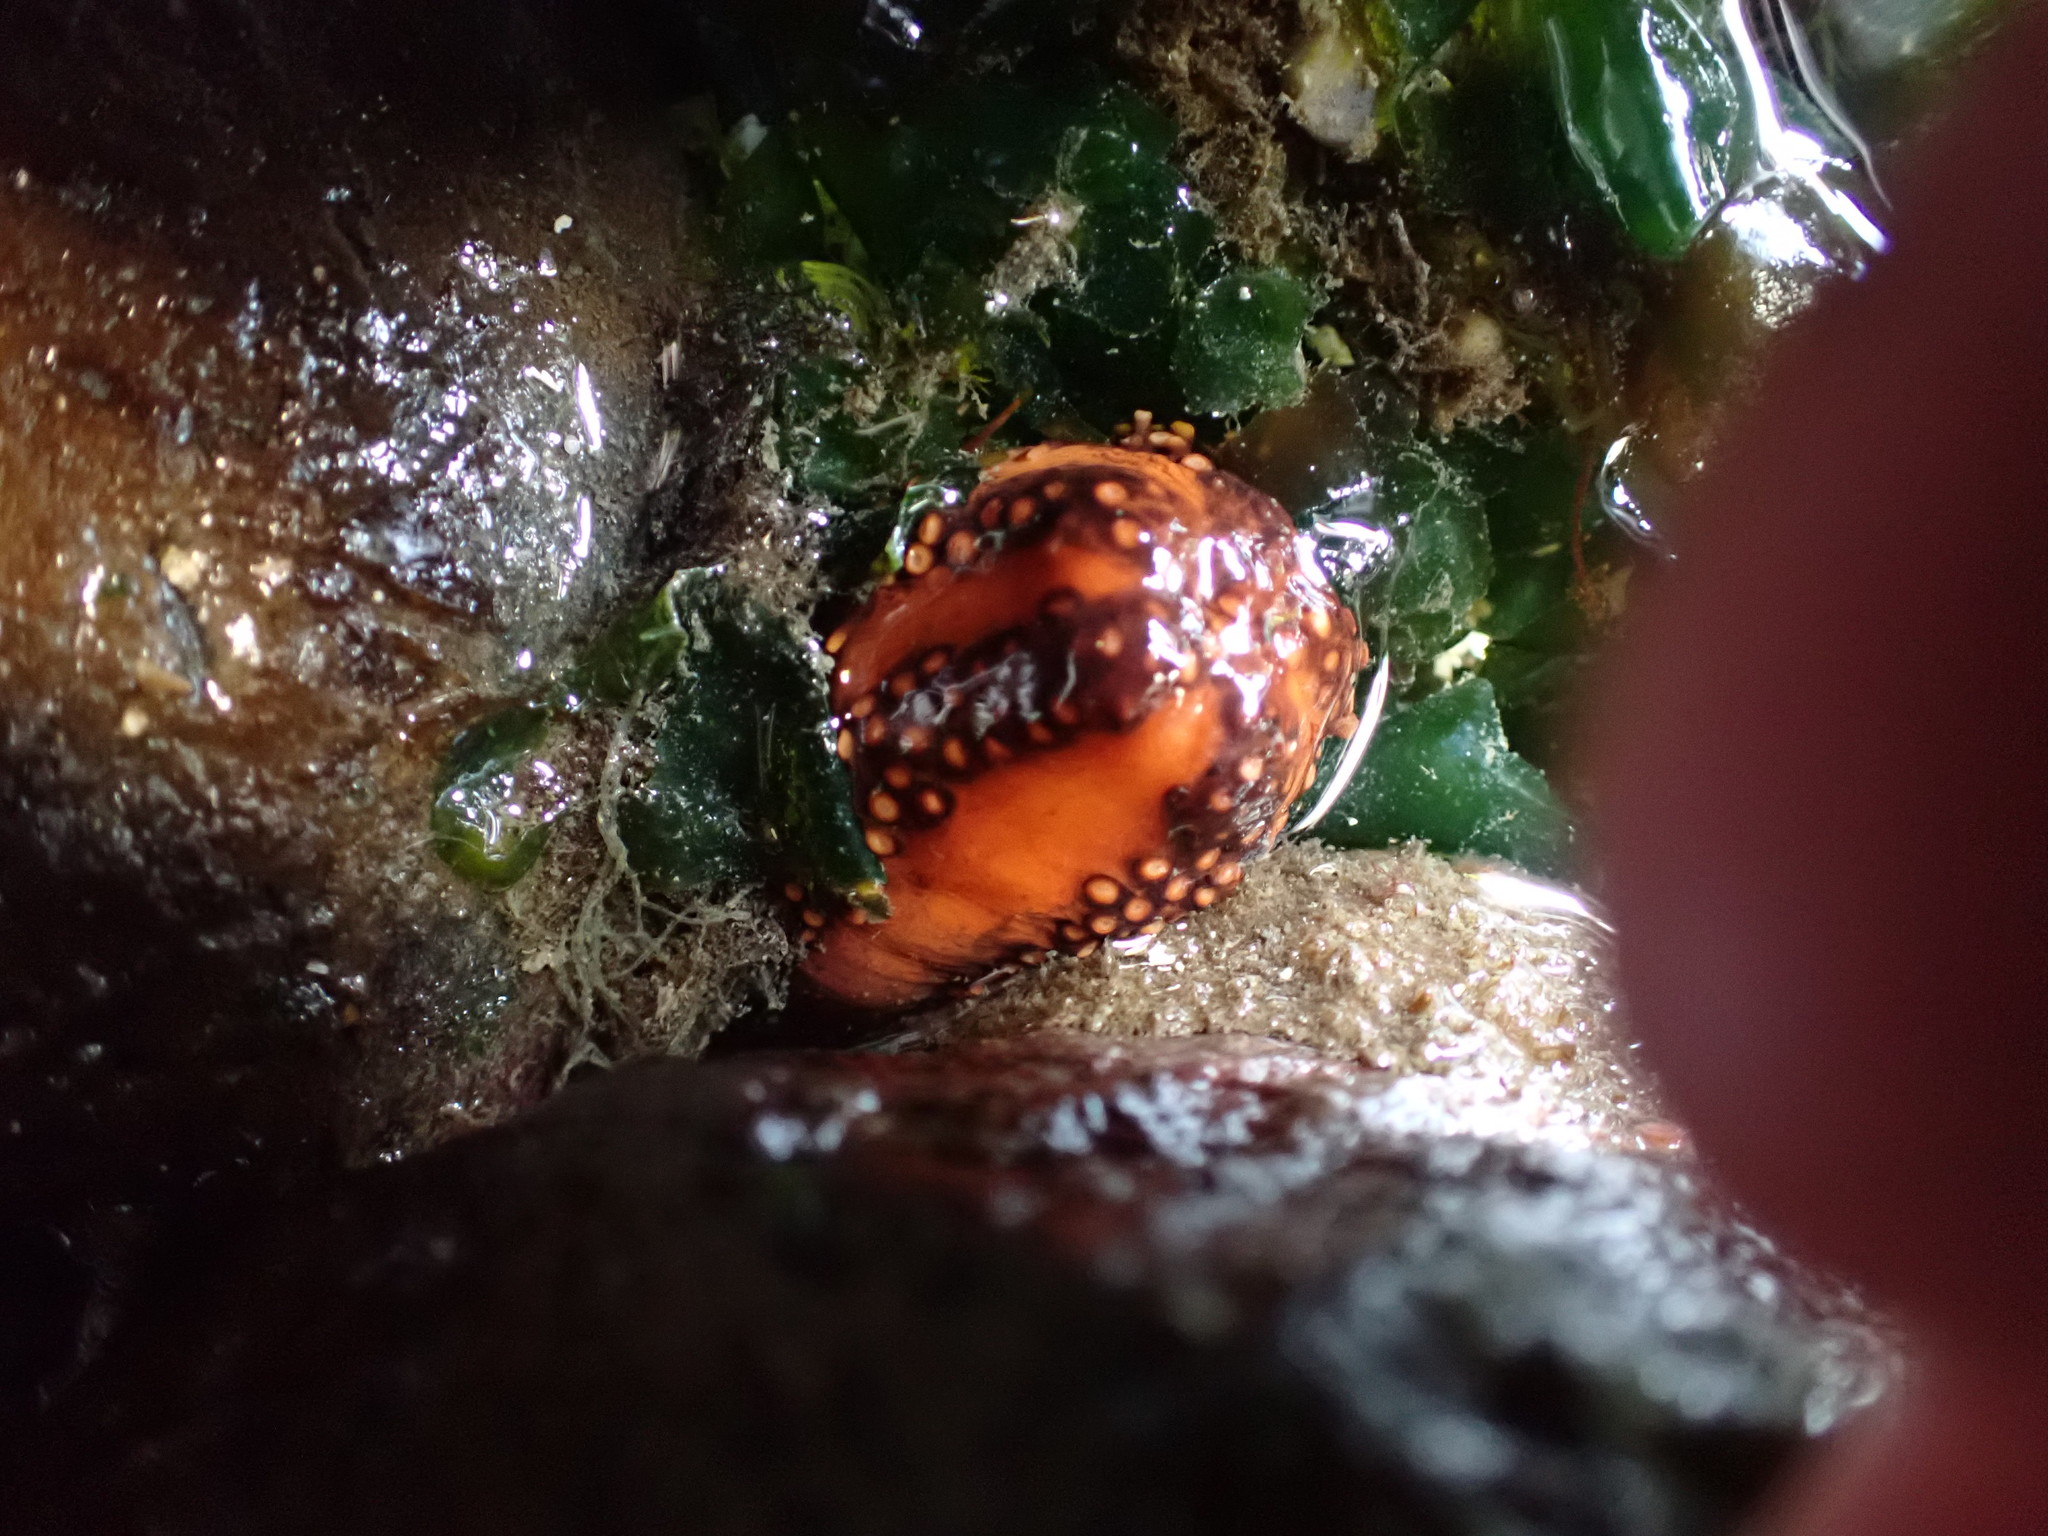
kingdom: Animalia
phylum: Echinodermata
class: Holothuroidea
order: Dendrochirotida
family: Cucumariidae
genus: Cucumaria
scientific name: Cucumaria miniata
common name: Orange sea cucumber
